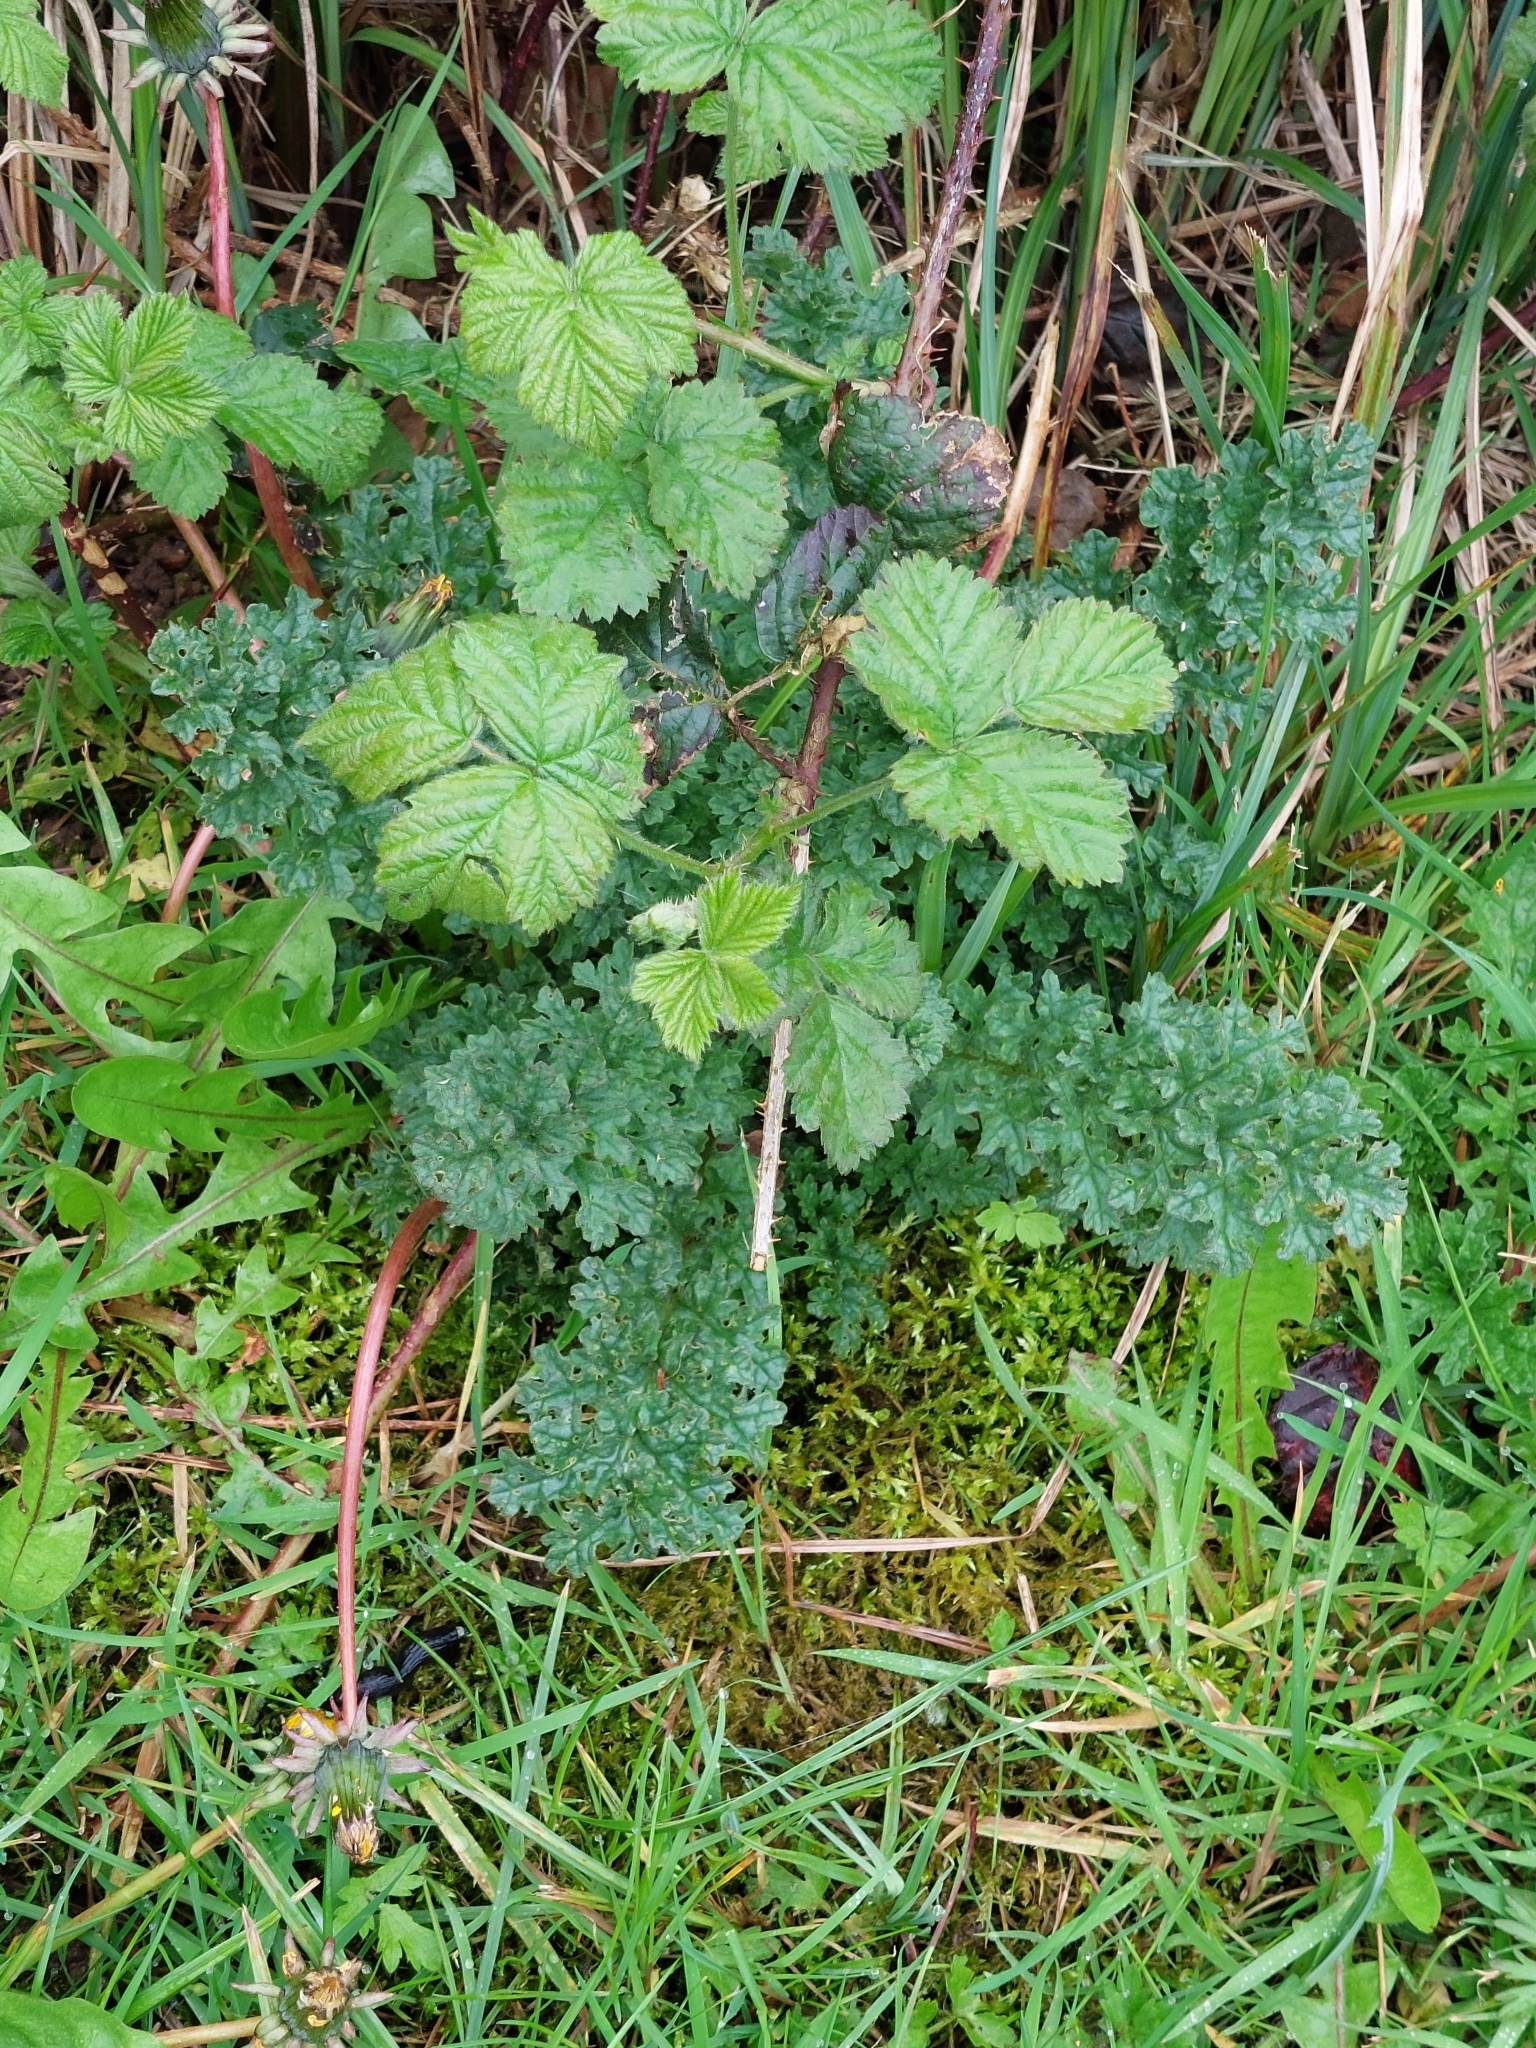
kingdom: Plantae
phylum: Tracheophyta
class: Magnoliopsida
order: Asterales
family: Asteraceae
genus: Jacobaea
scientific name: Jacobaea vulgaris
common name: Stinking willie
